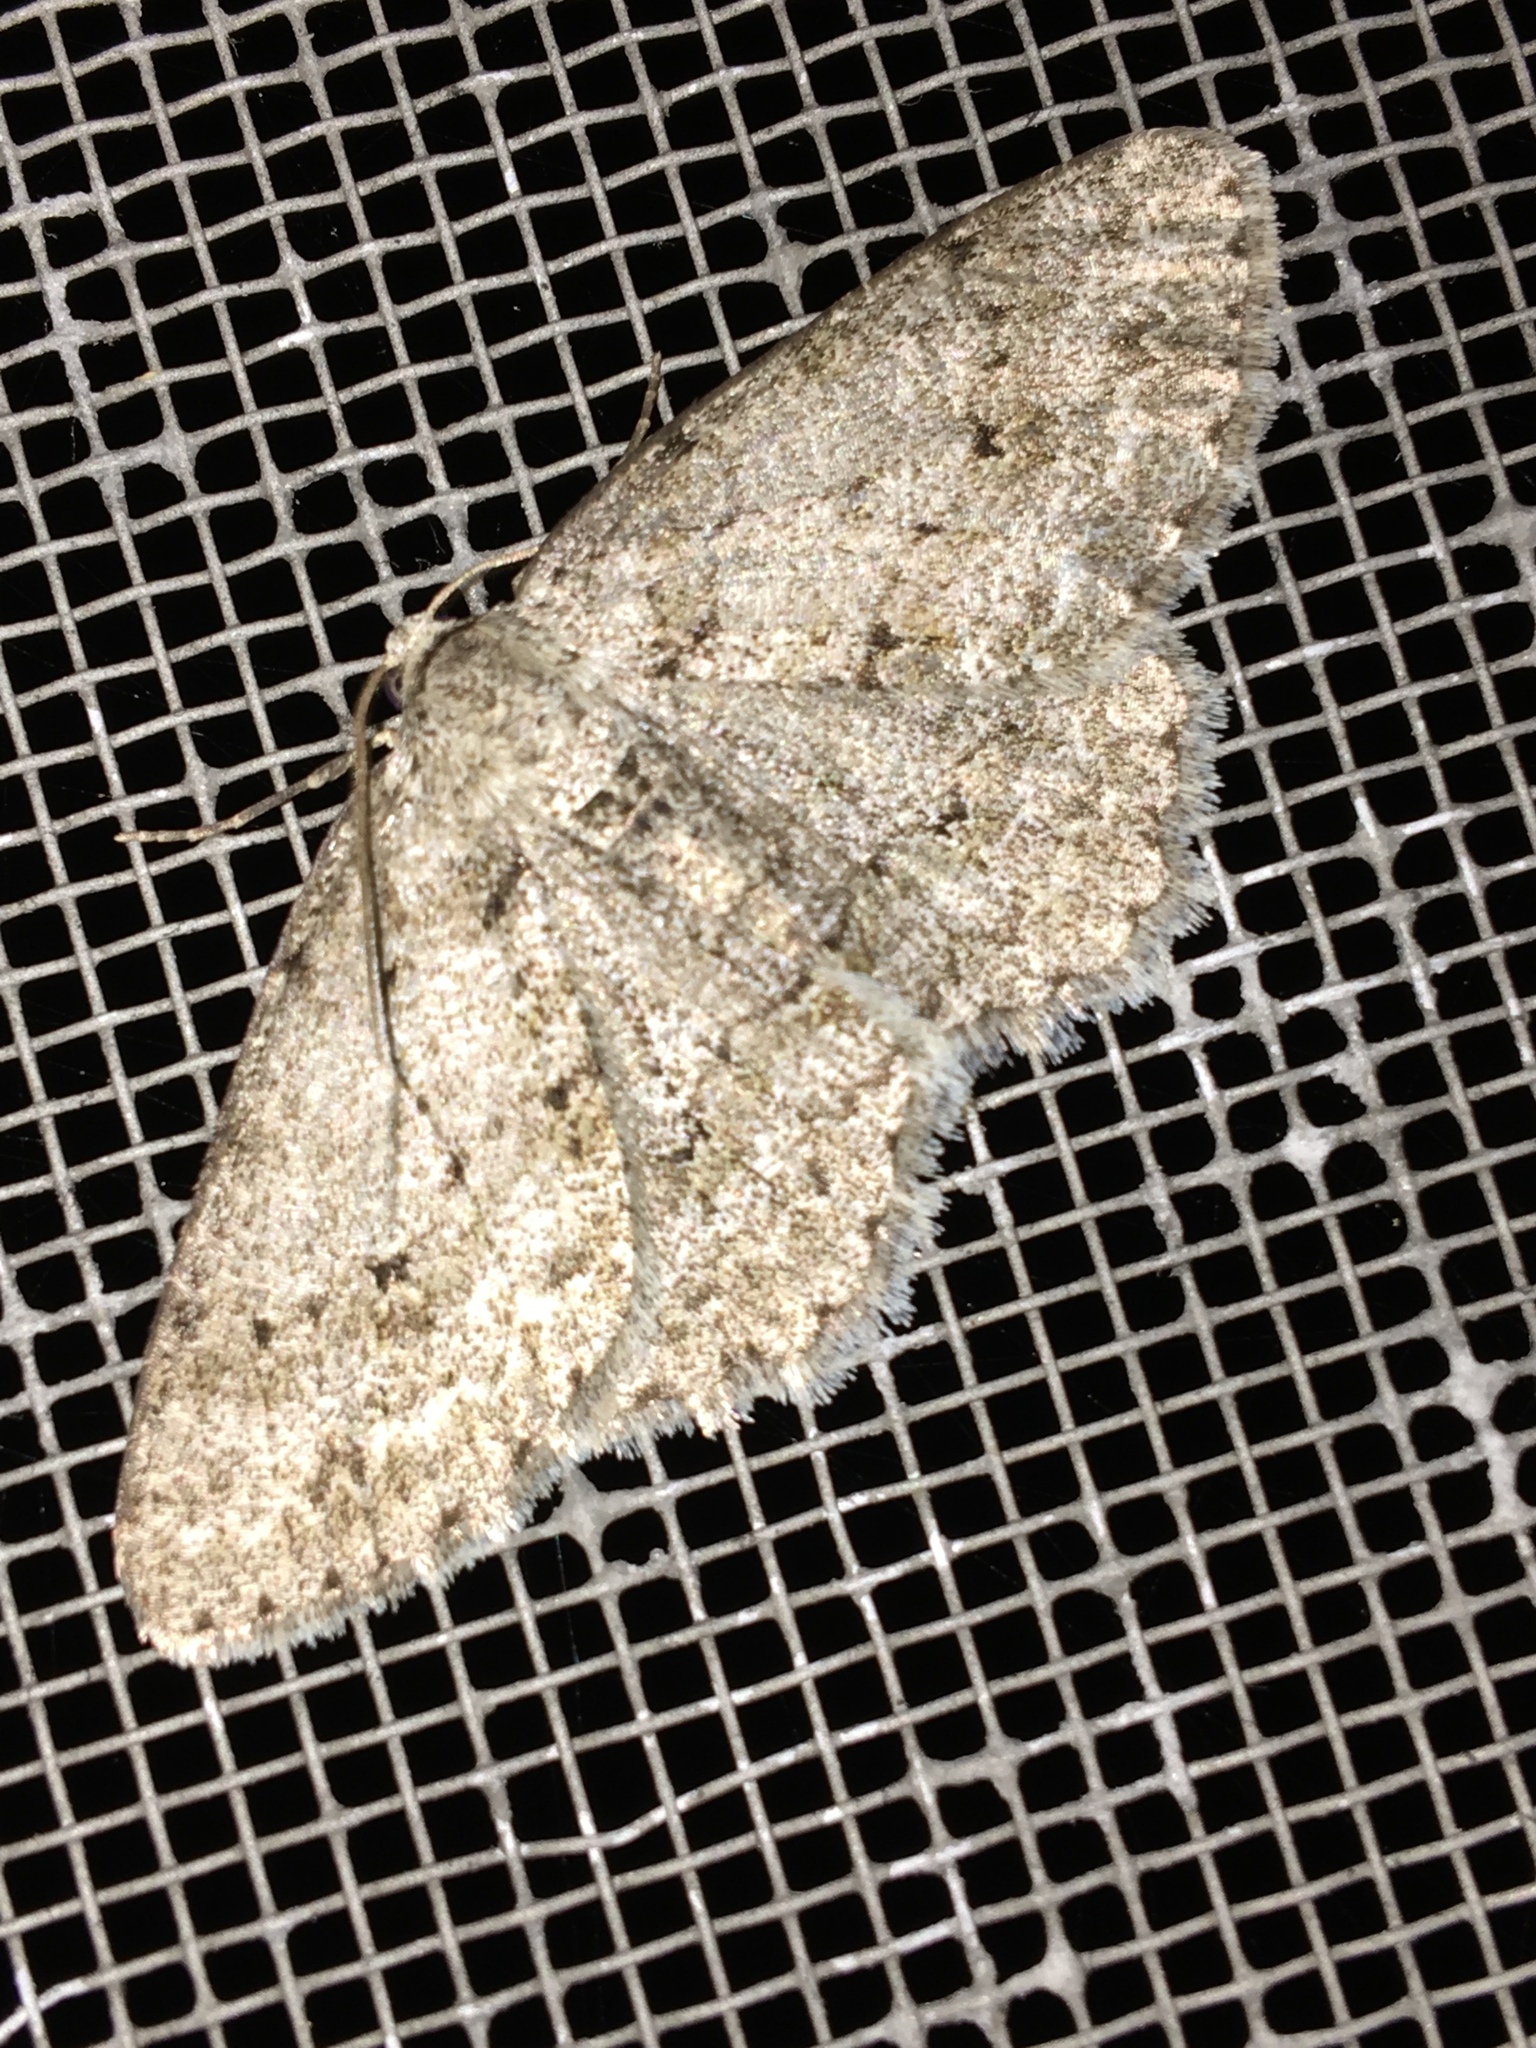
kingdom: Animalia
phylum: Arthropoda
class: Insecta
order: Lepidoptera
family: Geometridae
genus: Ectropis
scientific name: Ectropis crepuscularia
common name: Engrailed
